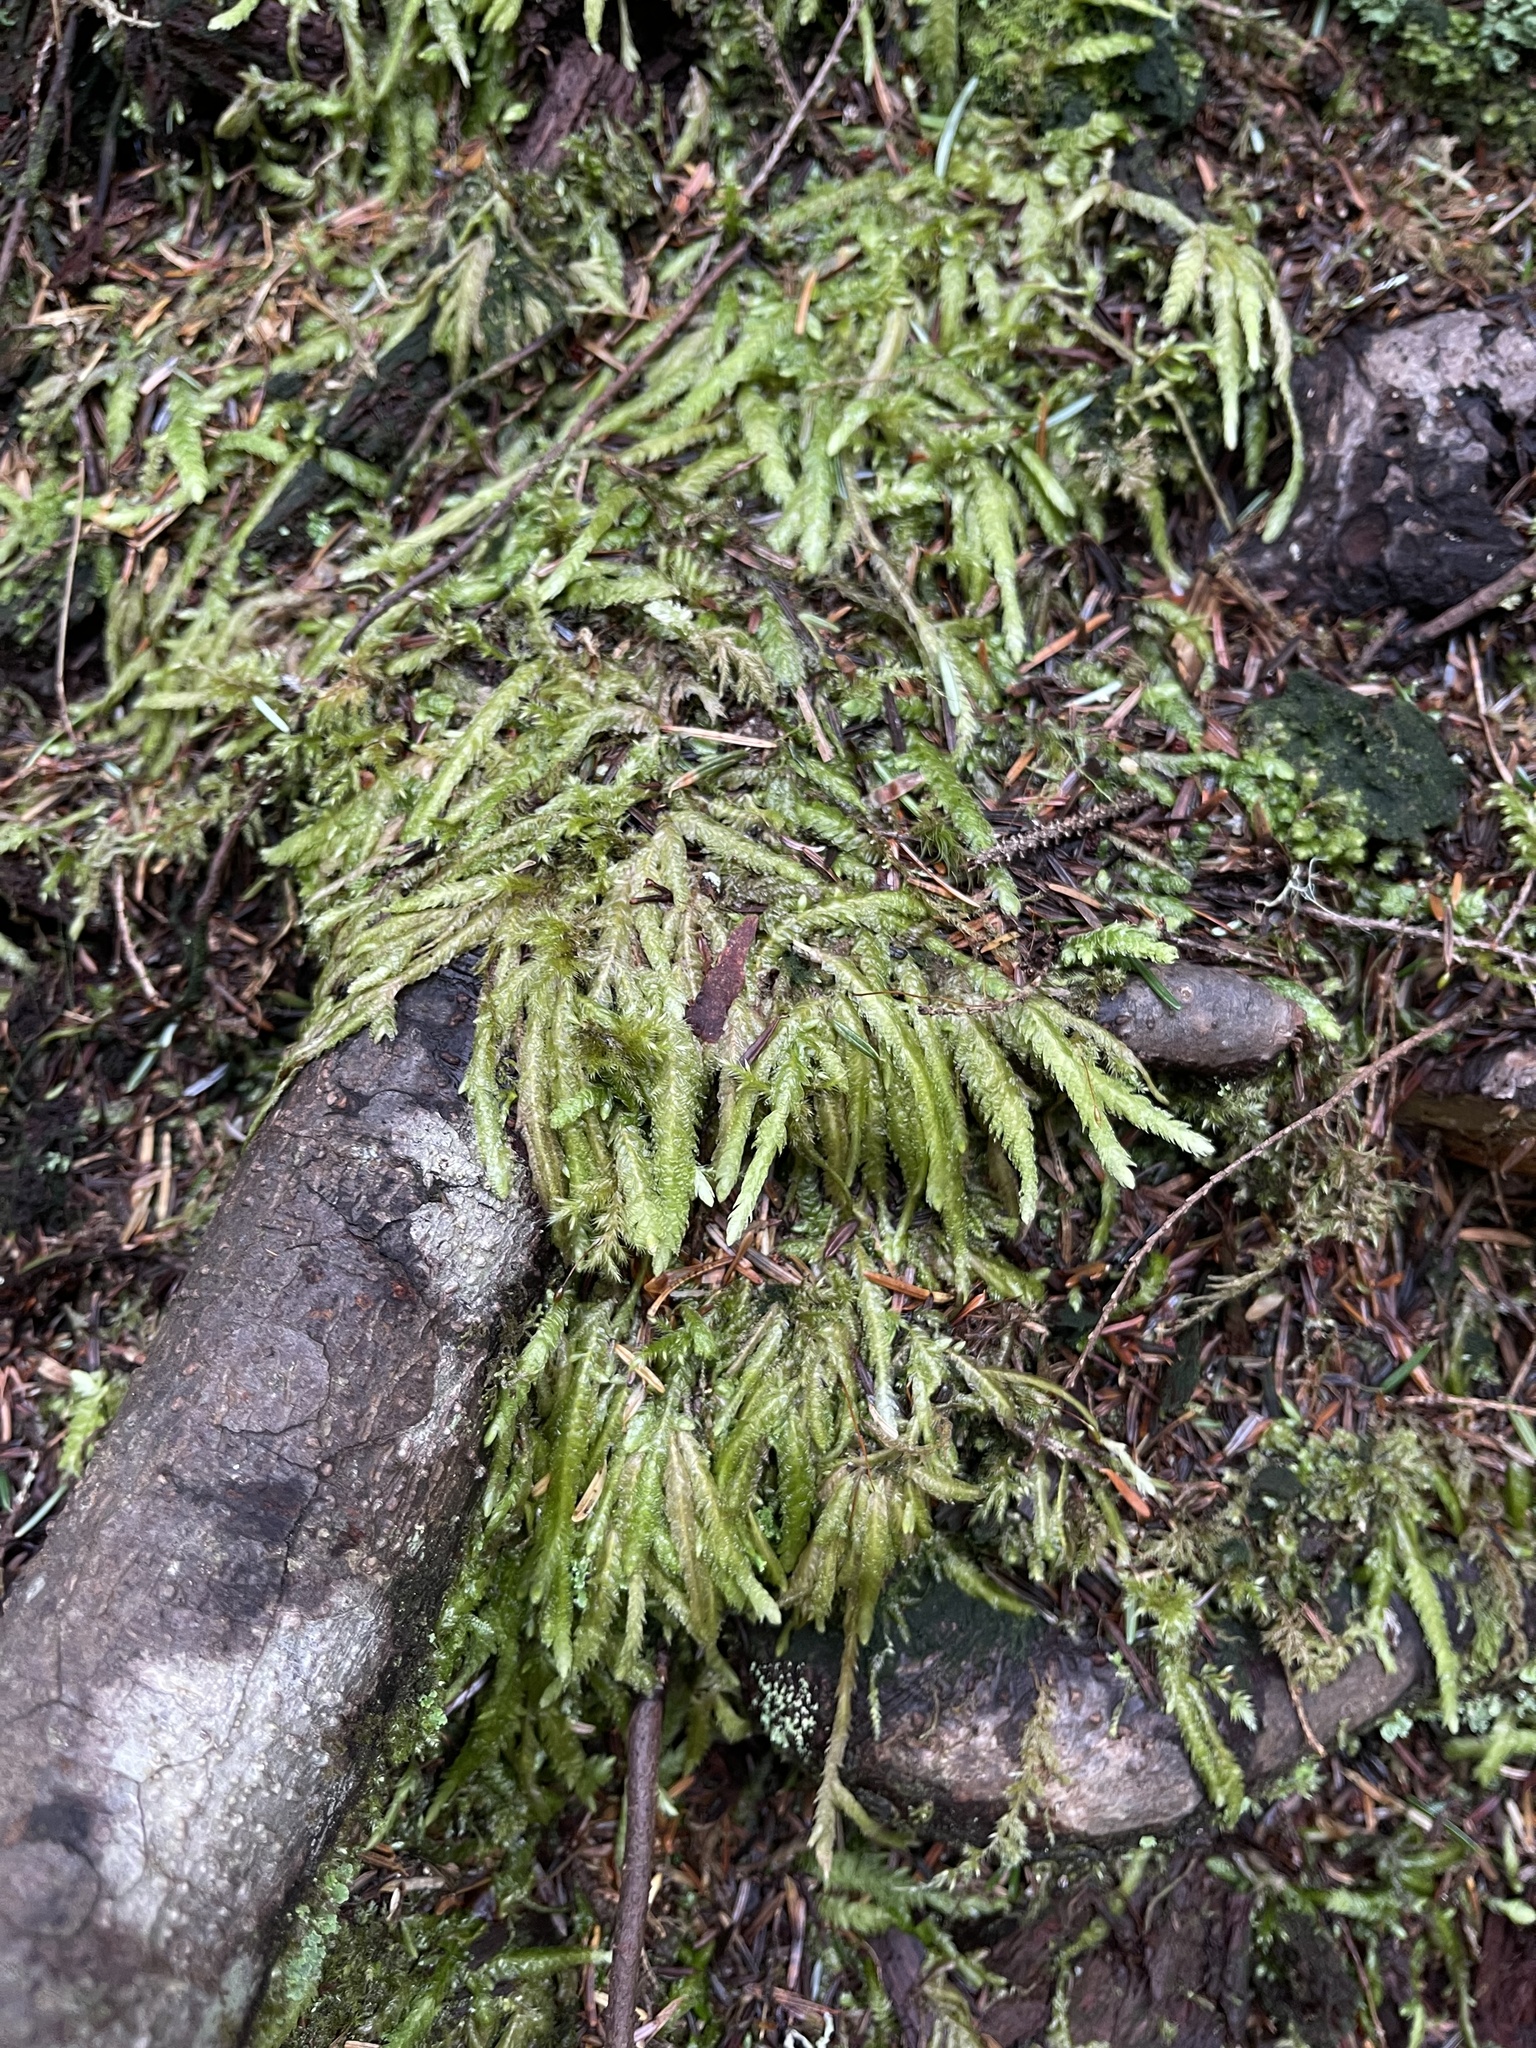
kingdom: Plantae
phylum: Bryophyta
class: Bryopsida
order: Hypnales
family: Plagiotheciaceae
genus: Plagiothecium
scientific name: Plagiothecium undulatum
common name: Waved silk-moss
